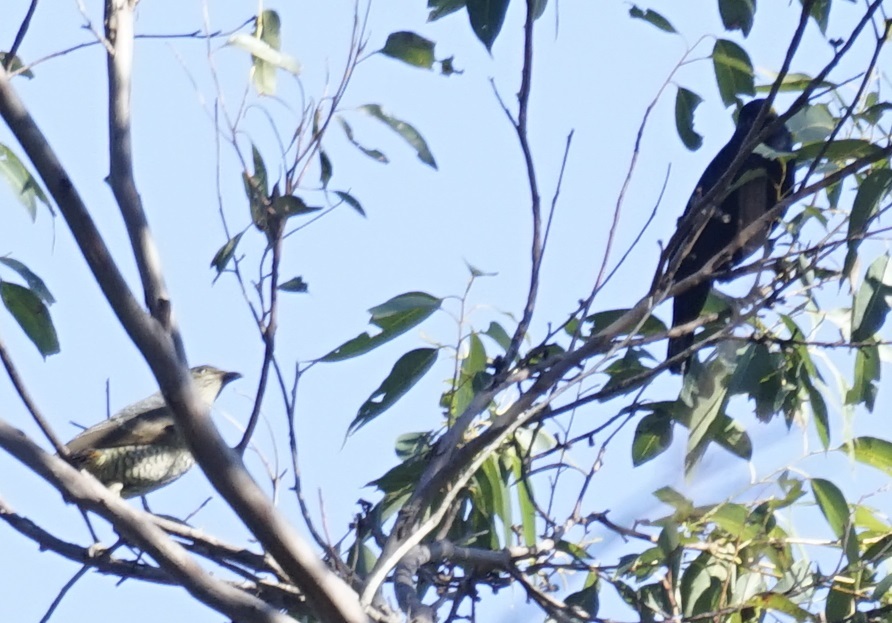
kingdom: Animalia
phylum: Chordata
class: Aves
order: Passeriformes
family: Ptilonorhynchidae
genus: Ptilonorhynchus
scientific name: Ptilonorhynchus violaceus
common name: Satin bowerbird
